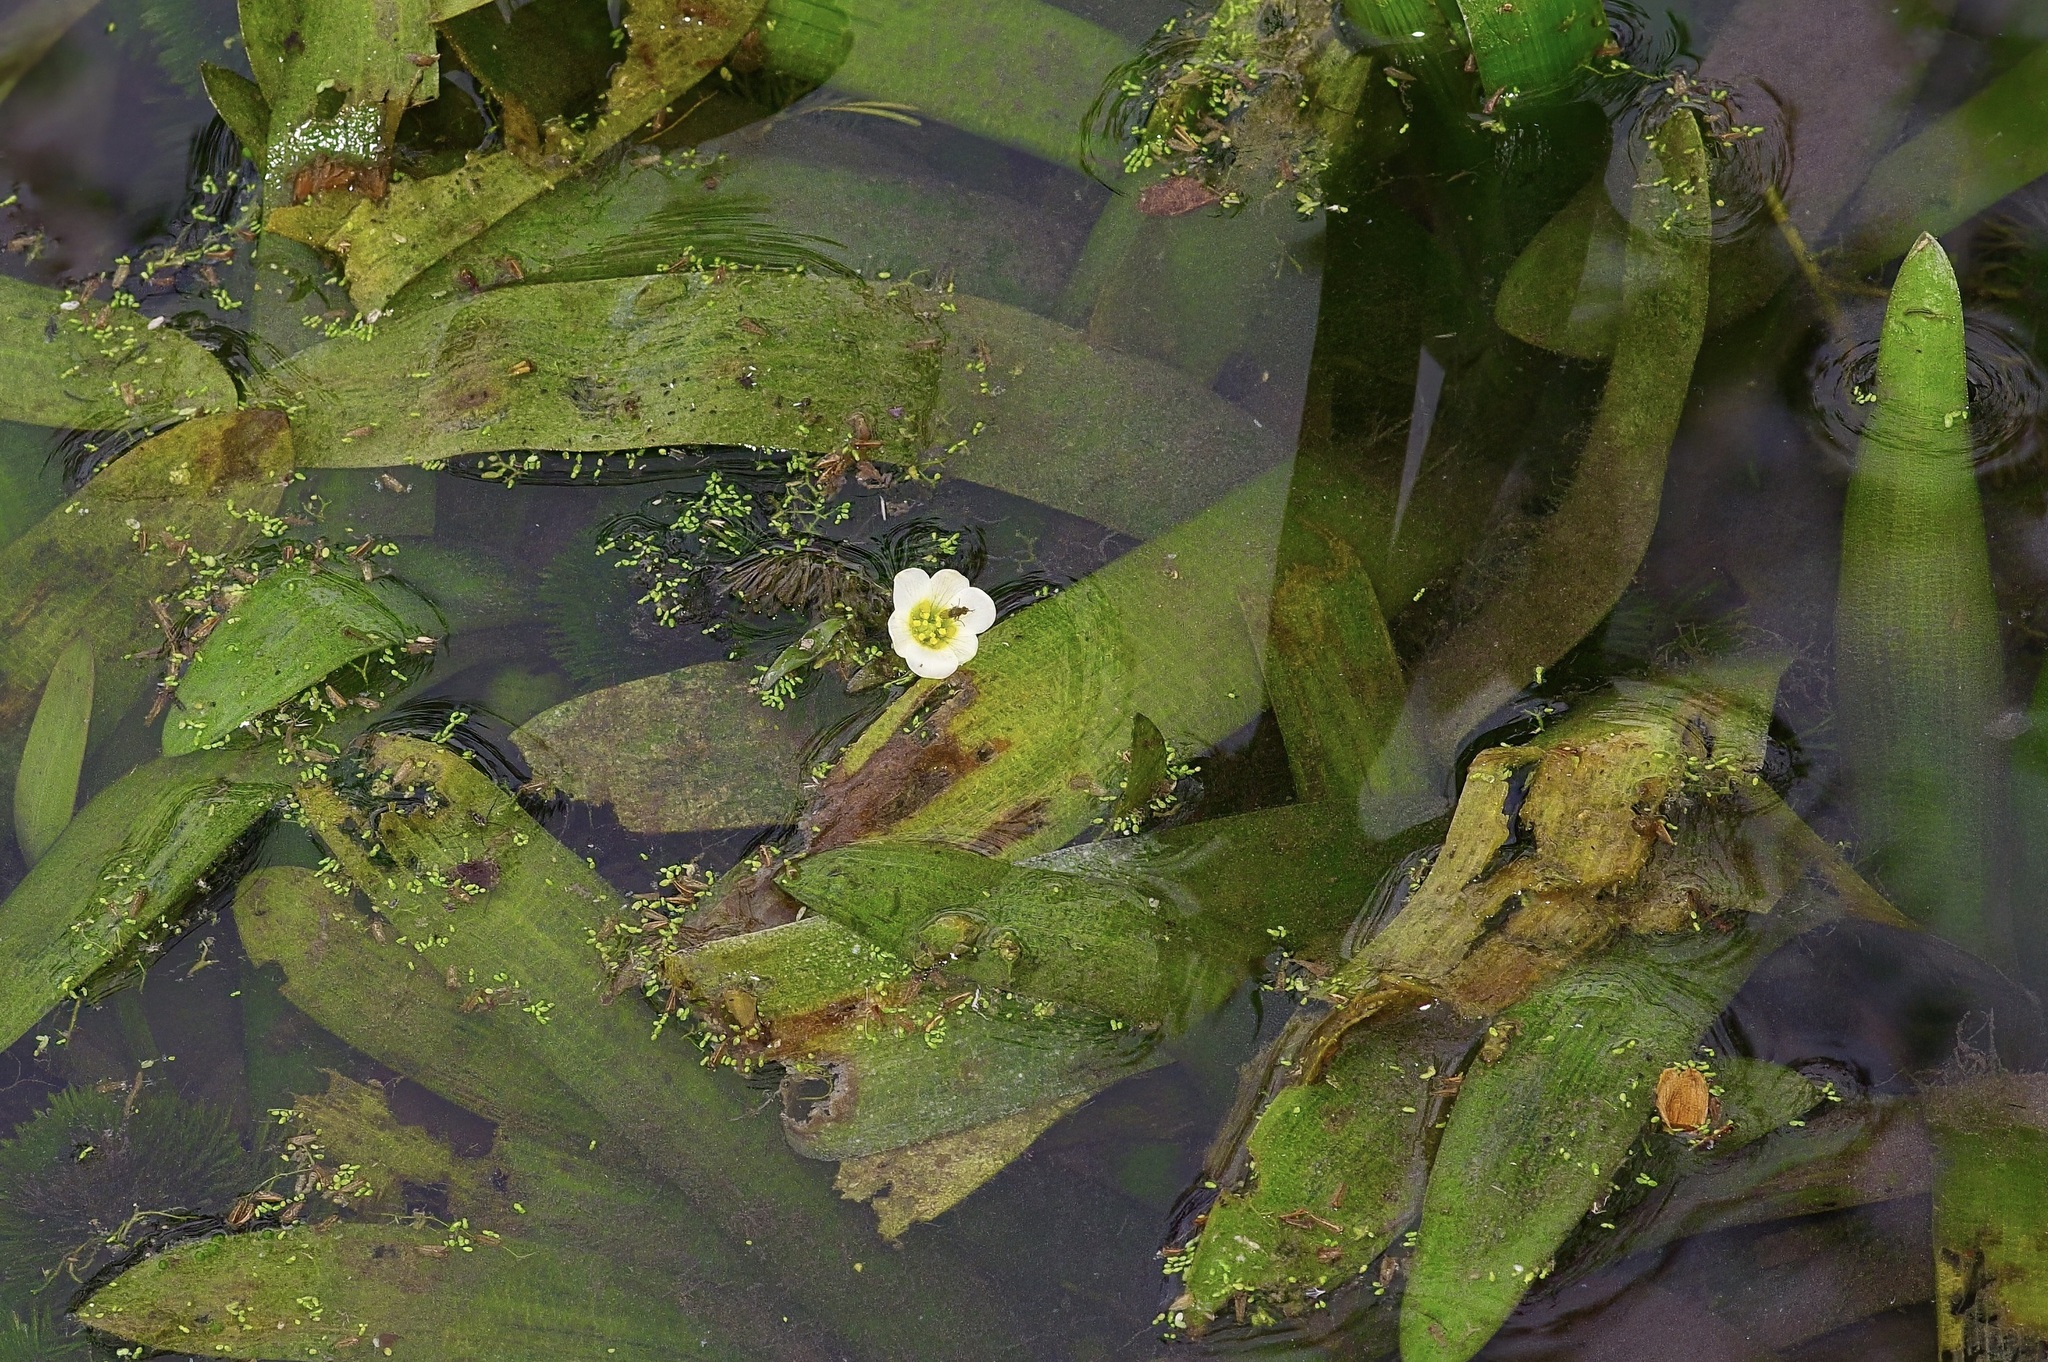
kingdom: Plantae
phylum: Tracheophyta
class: Magnoliopsida
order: Nymphaeales
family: Cabombaceae
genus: Cabomba
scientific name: Cabomba caroliniana
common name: Fanwort
